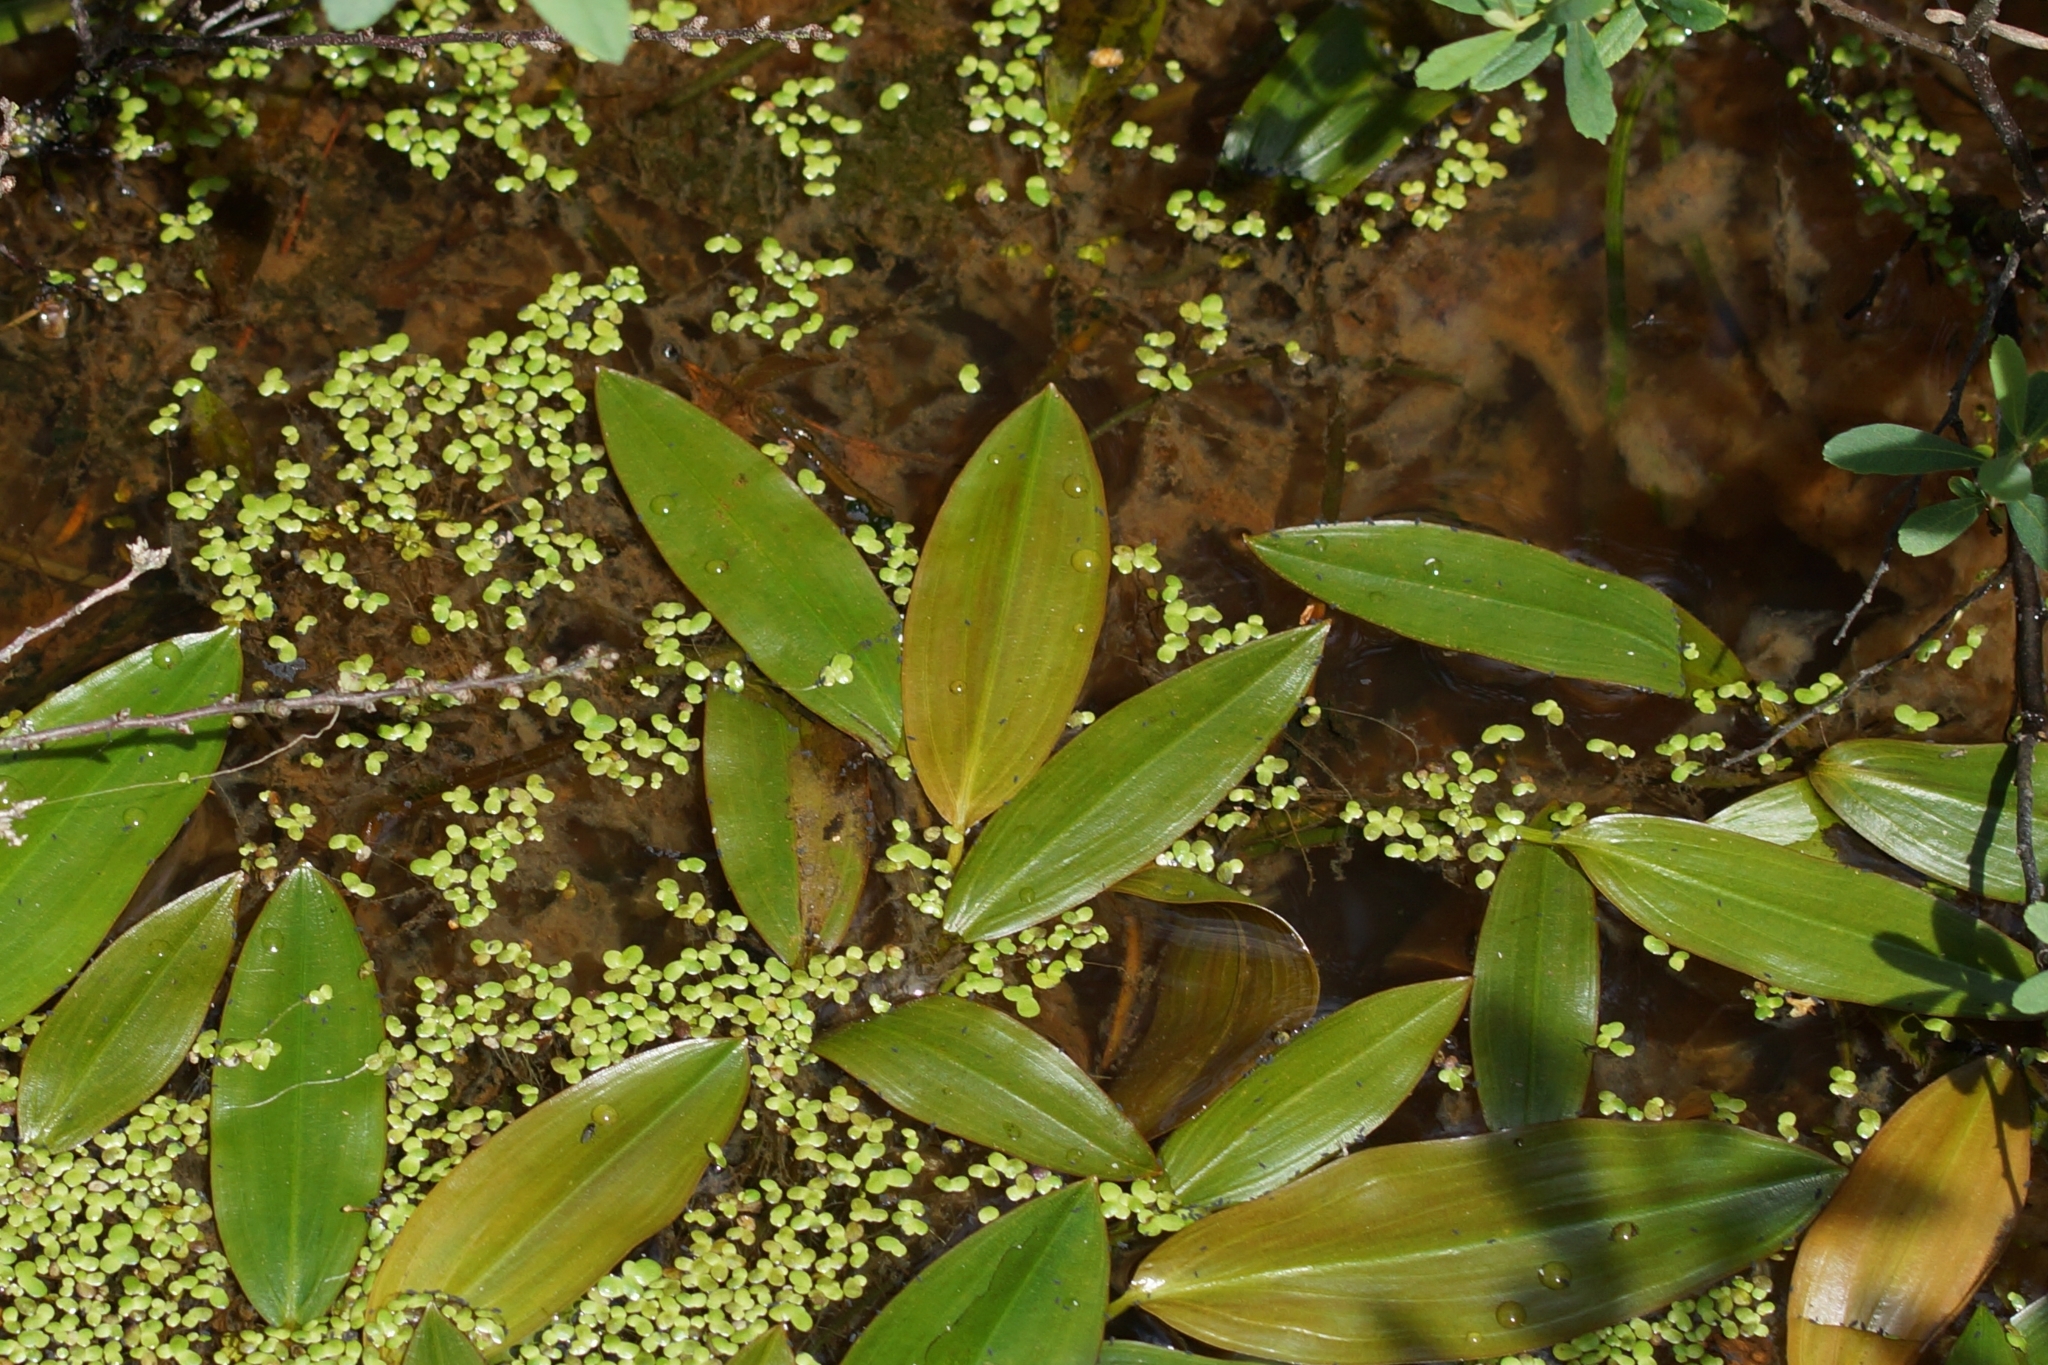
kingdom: Plantae
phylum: Tracheophyta
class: Liliopsida
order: Alismatales
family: Potamogetonaceae
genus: Potamogeton
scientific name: Potamogeton natans
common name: Broad-leaved pondweed
